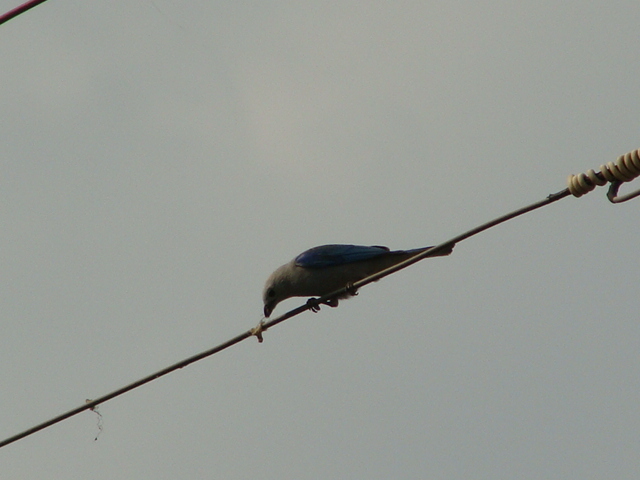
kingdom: Animalia
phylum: Chordata
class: Aves
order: Passeriformes
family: Thraupidae
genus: Thraupis
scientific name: Thraupis episcopus
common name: Blue-grey tanager
